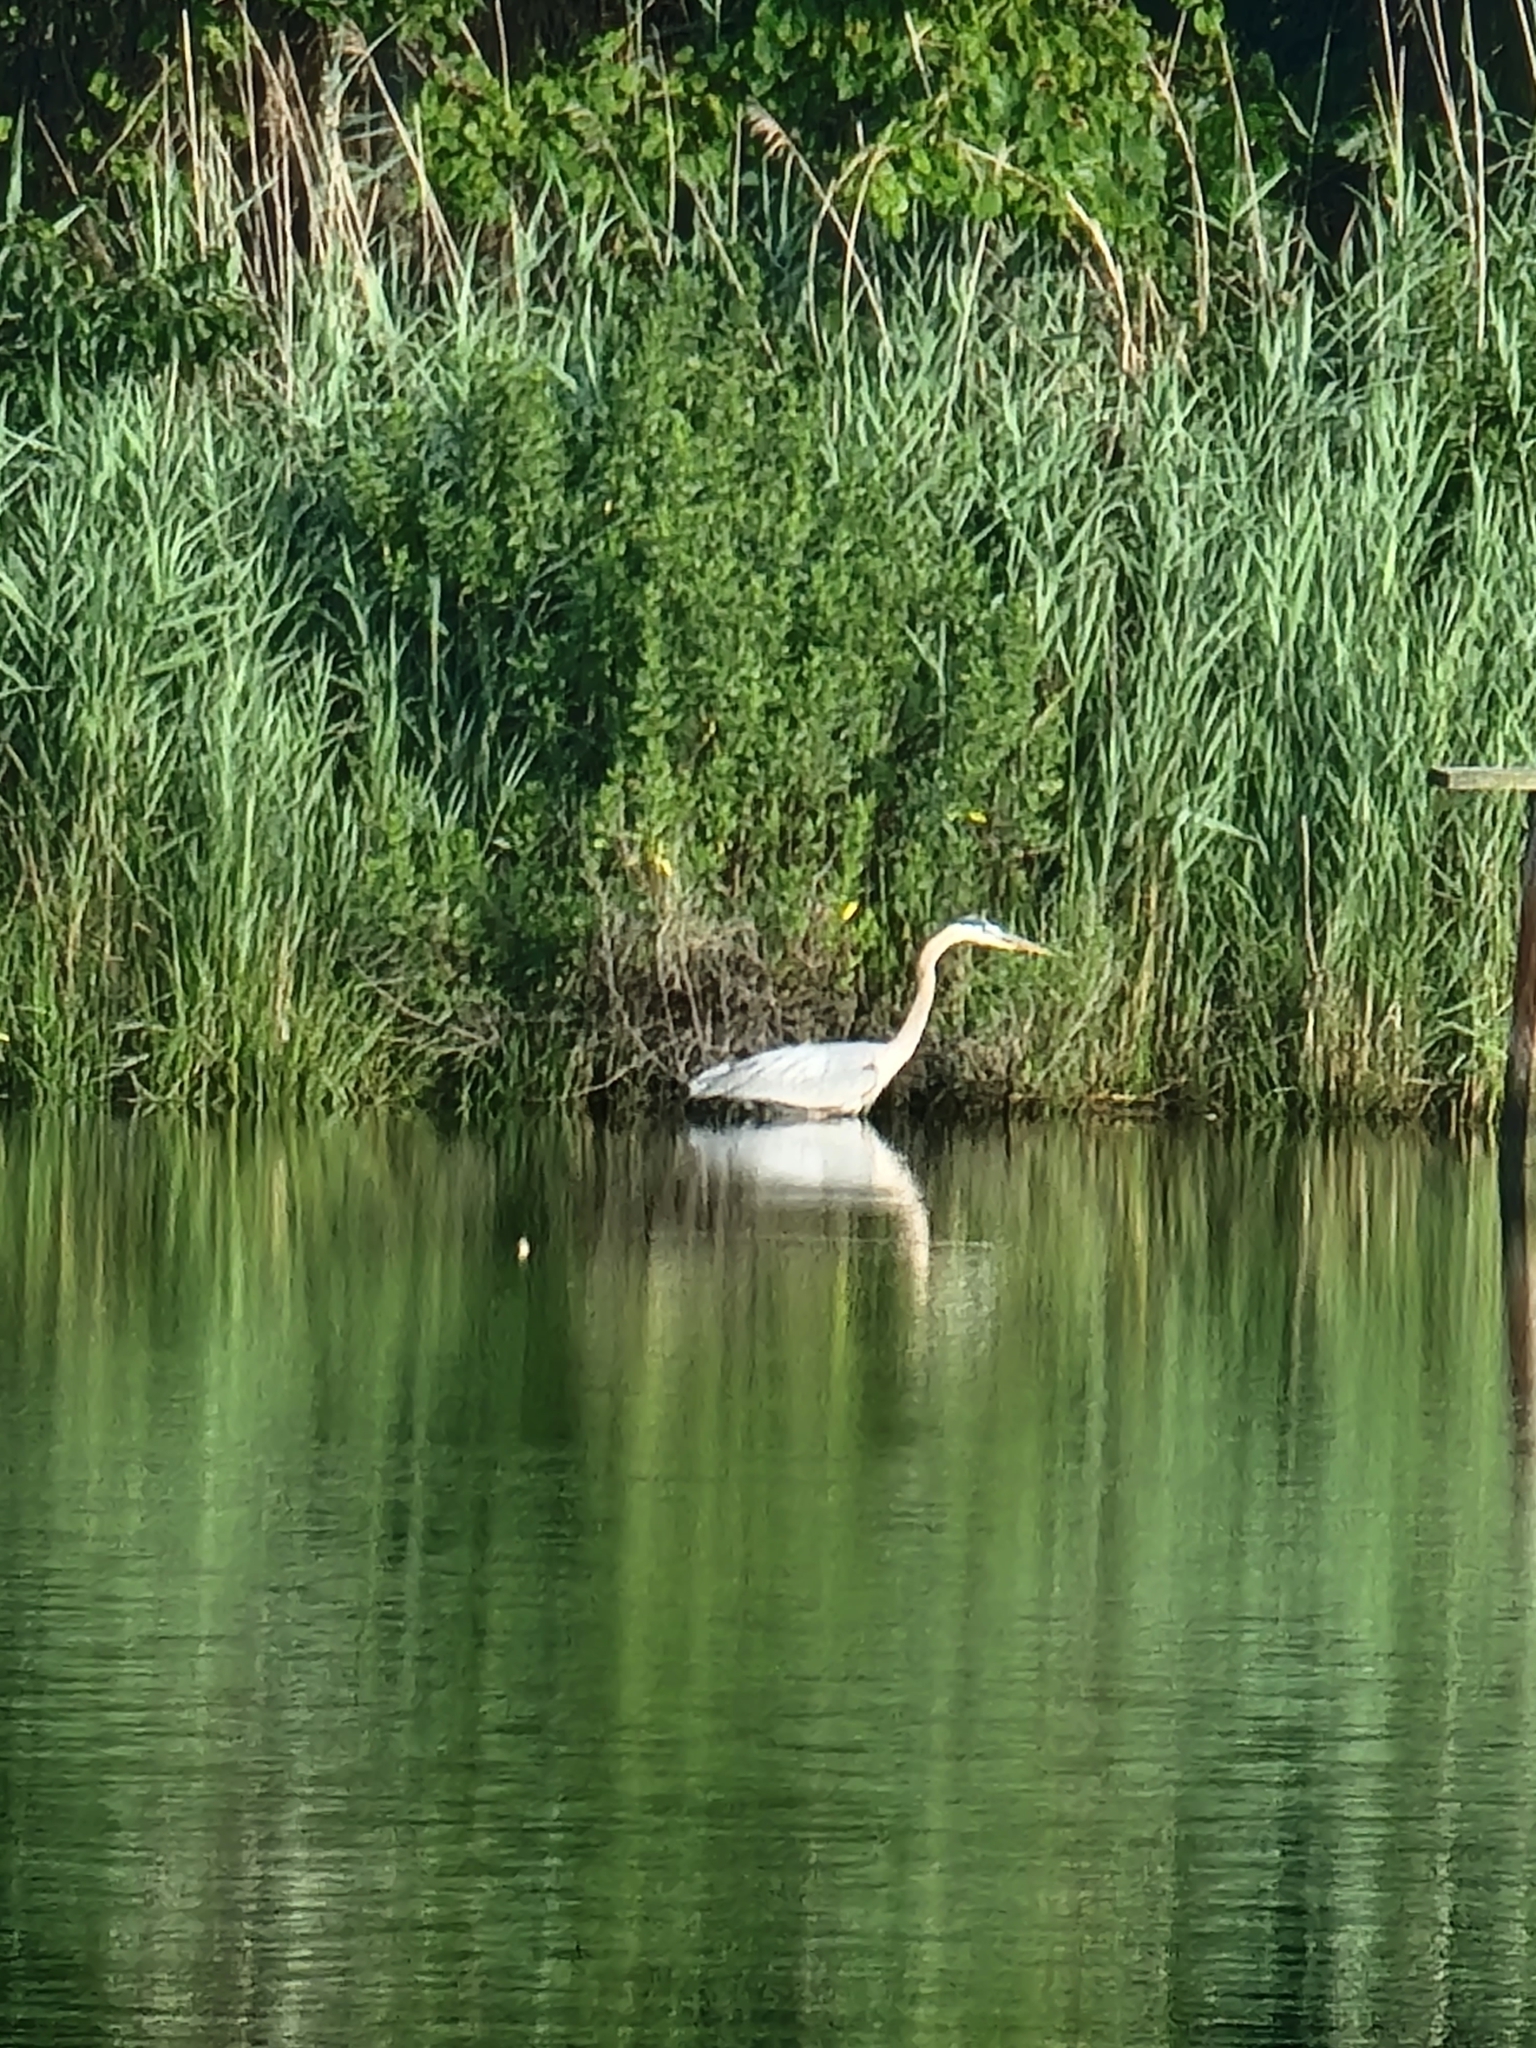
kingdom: Animalia
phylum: Chordata
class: Aves
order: Pelecaniformes
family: Ardeidae
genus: Ardea
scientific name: Ardea herodias
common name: Great blue heron
